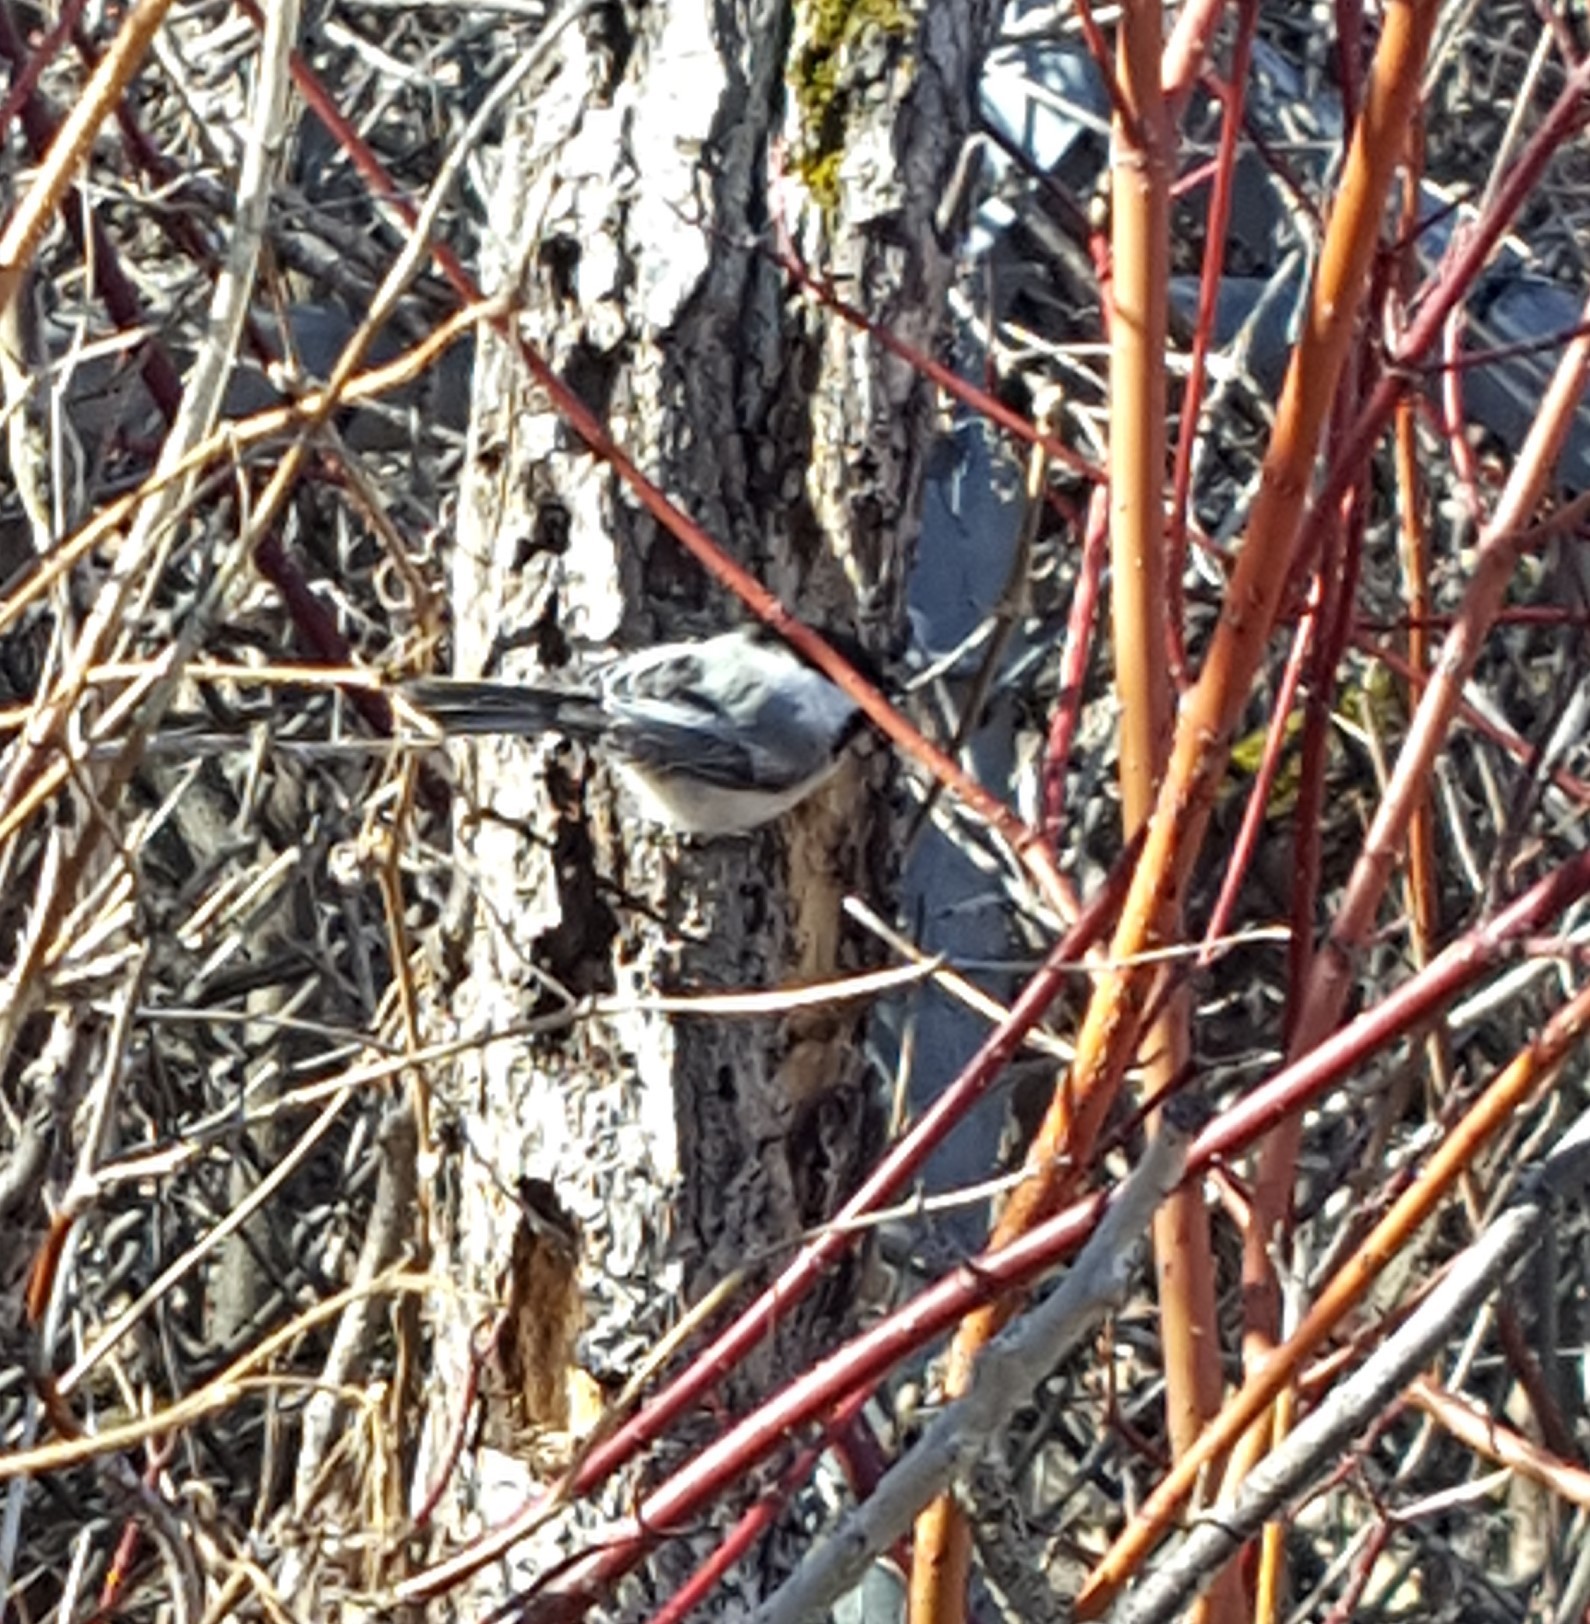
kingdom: Animalia
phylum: Chordata
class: Aves
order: Passeriformes
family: Paridae
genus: Poecile
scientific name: Poecile atricapillus
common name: Black-capped chickadee
